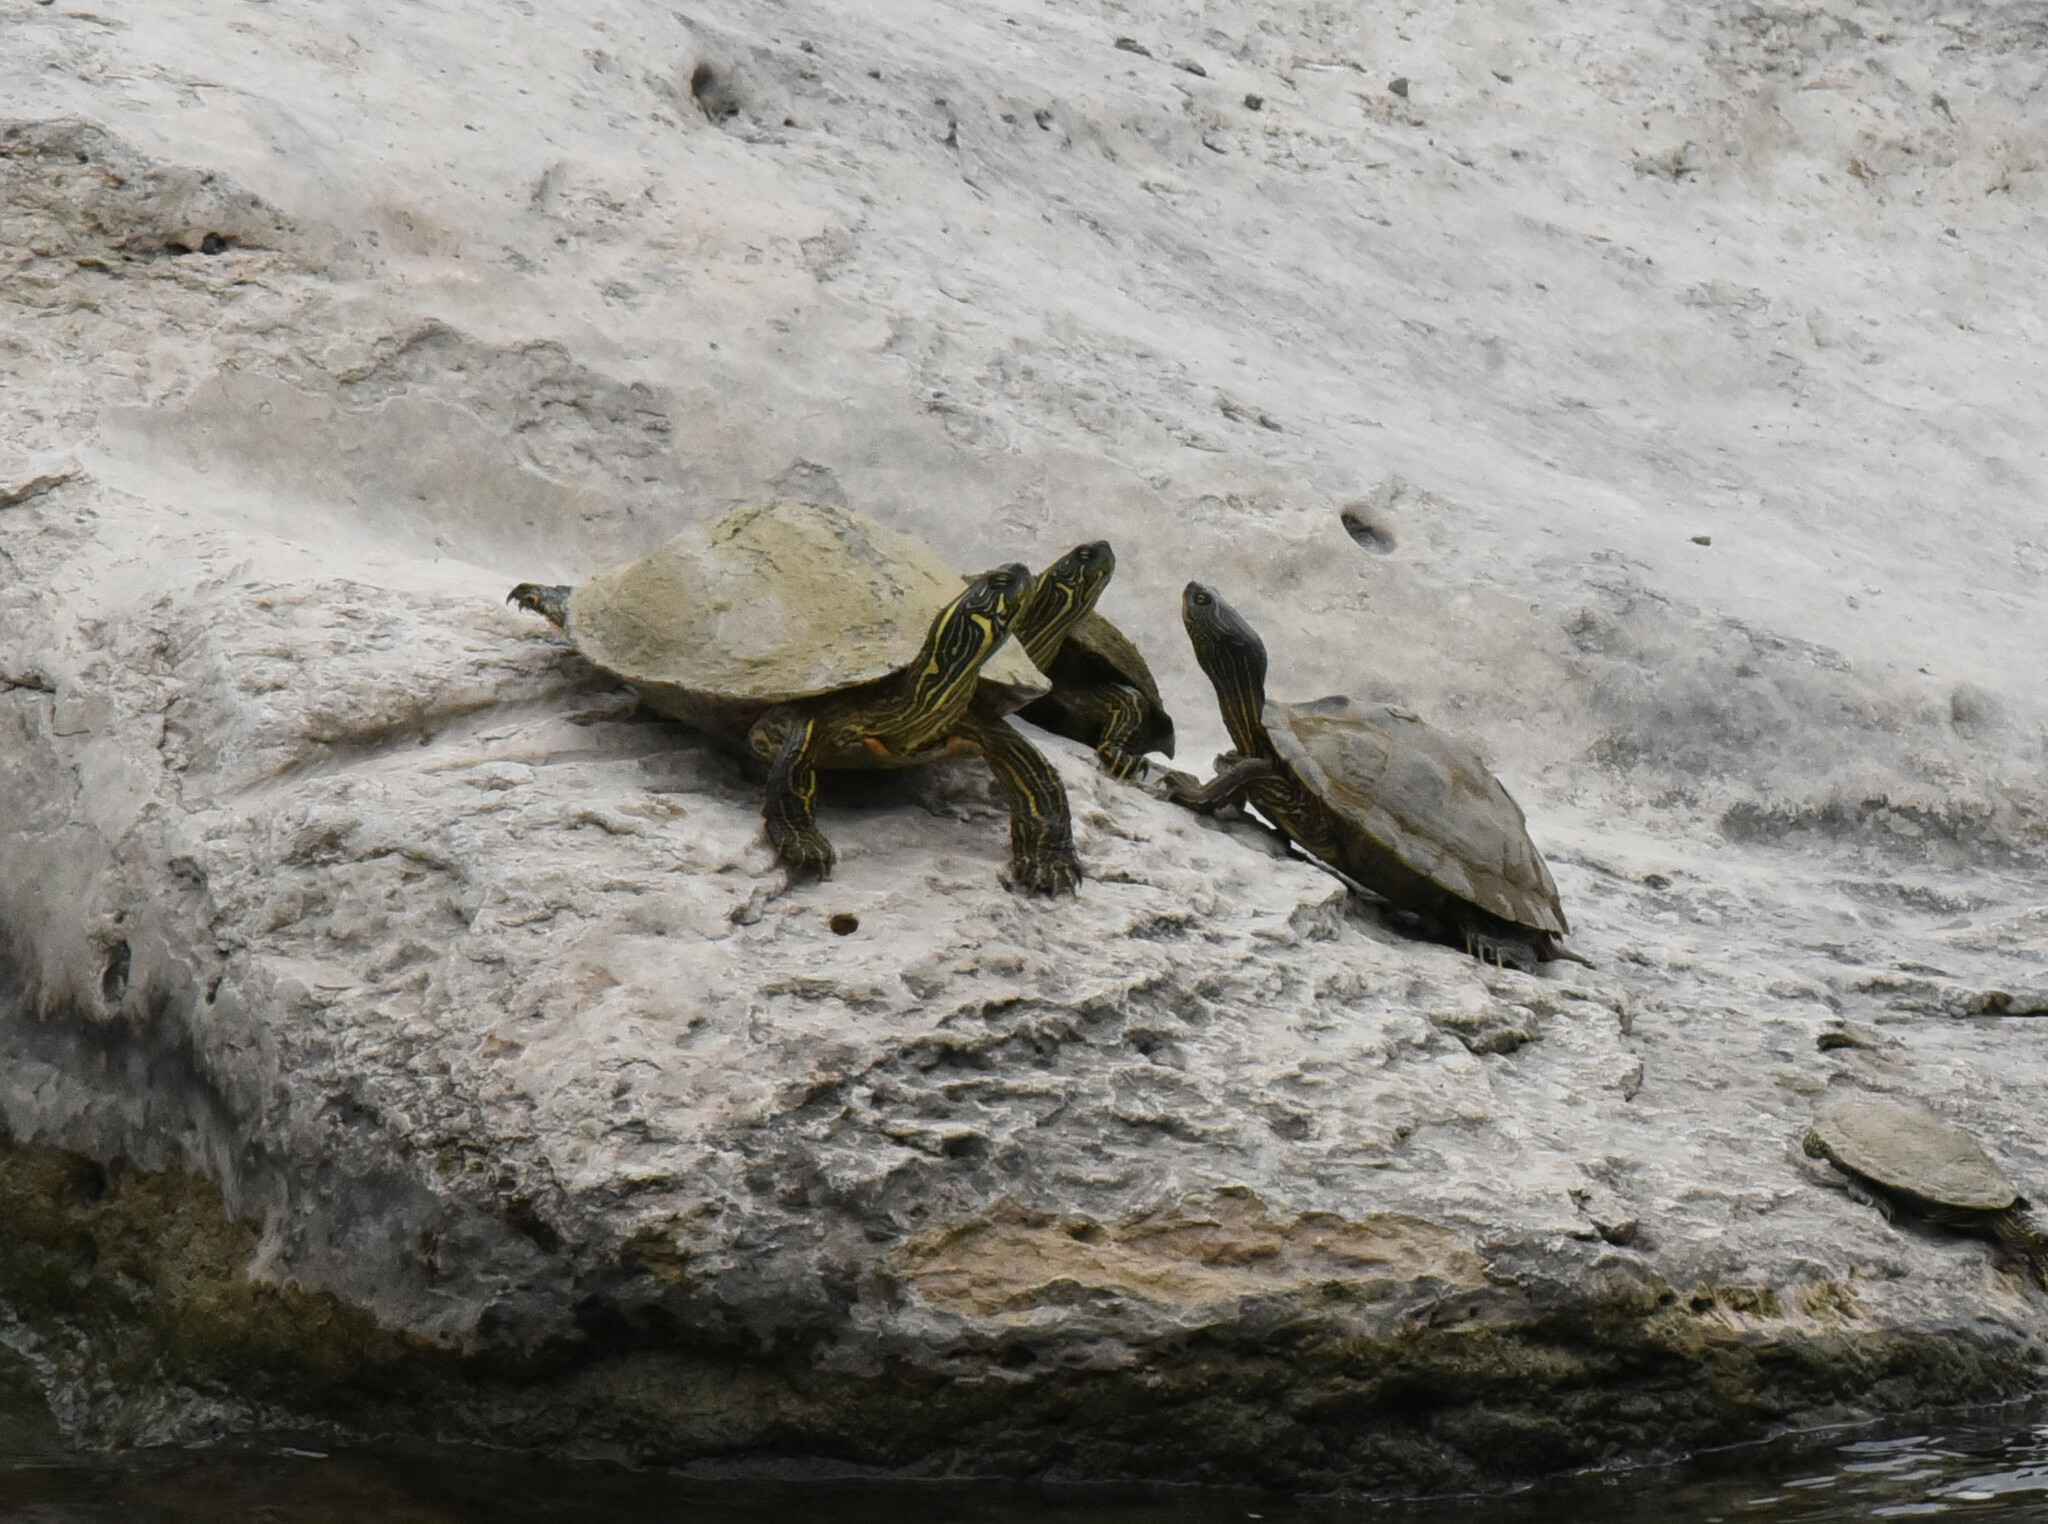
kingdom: Animalia
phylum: Chordata
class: Testudines
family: Emydidae
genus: Pseudemys
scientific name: Pseudemys texana
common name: Texas river cooter
